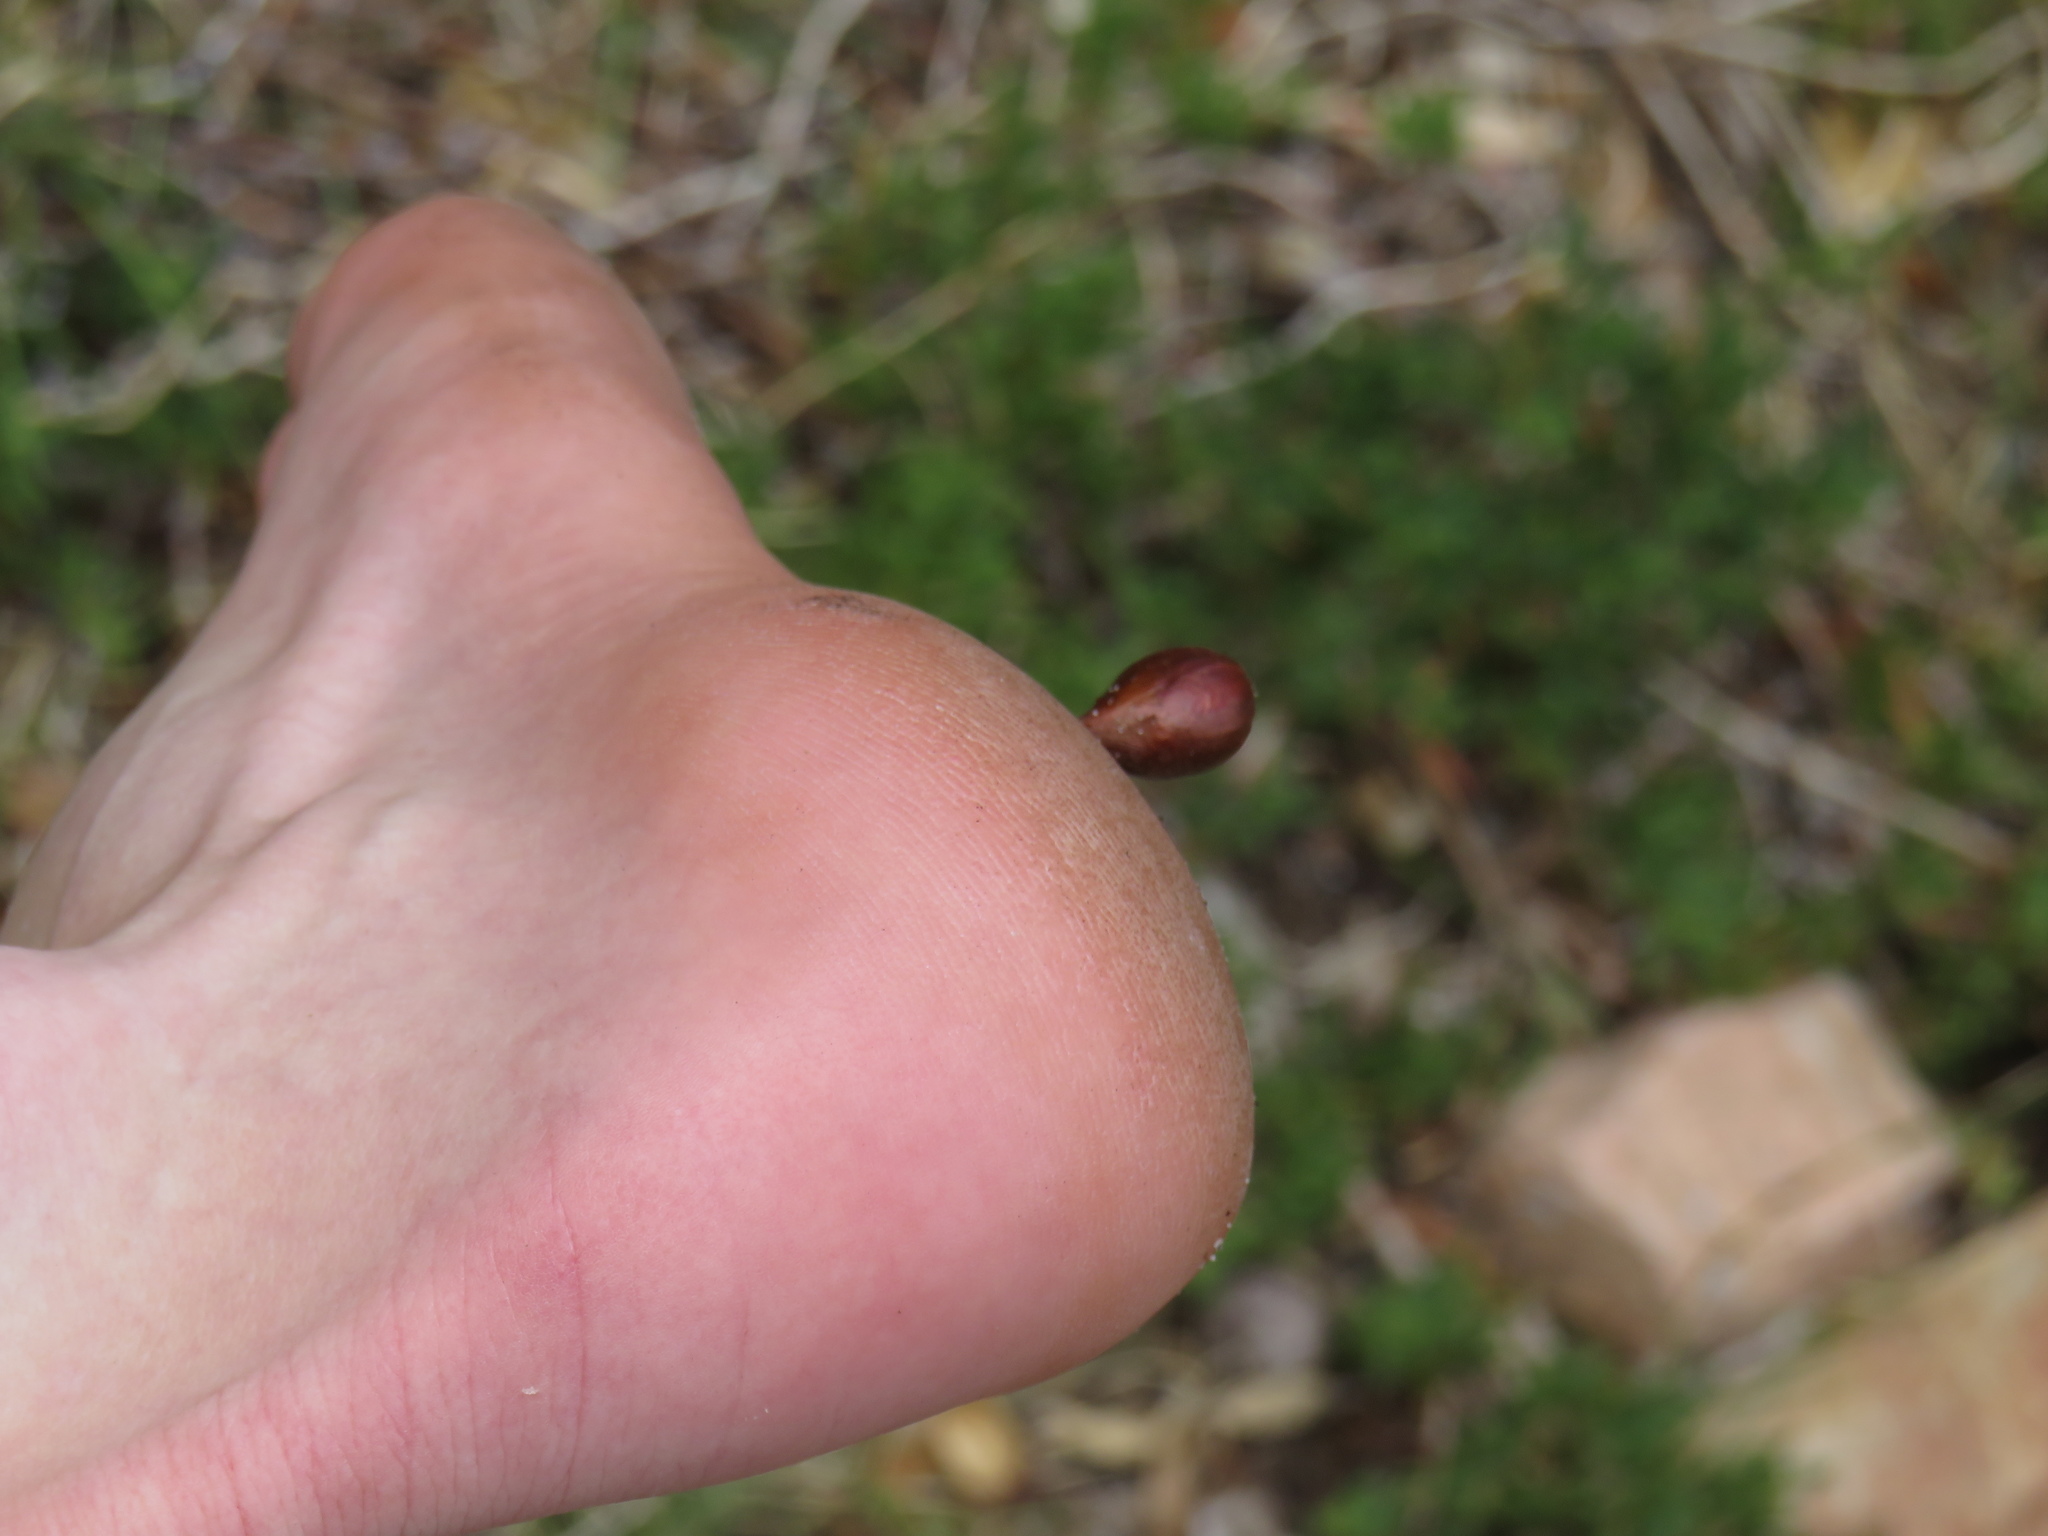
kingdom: Plantae
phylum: Tracheophyta
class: Magnoliopsida
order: Oxalidales
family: Oxalidaceae
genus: Oxalis
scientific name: Oxalis pes-caprae
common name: Bermuda-buttercup
